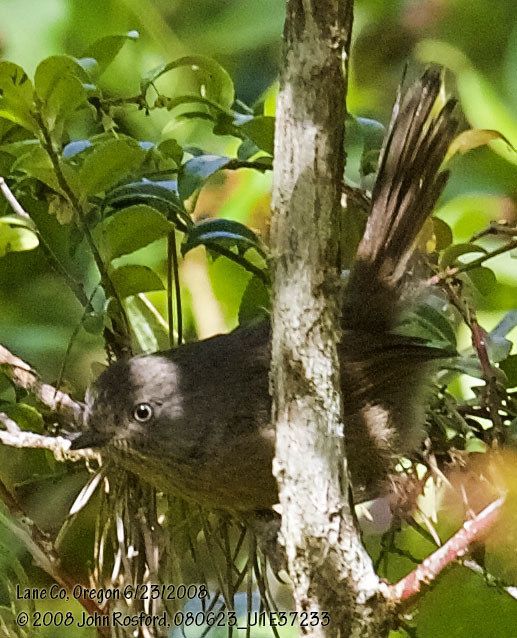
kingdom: Animalia
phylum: Chordata
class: Aves
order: Passeriformes
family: Sylviidae
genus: Chamaea
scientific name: Chamaea fasciata
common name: Wrentit
